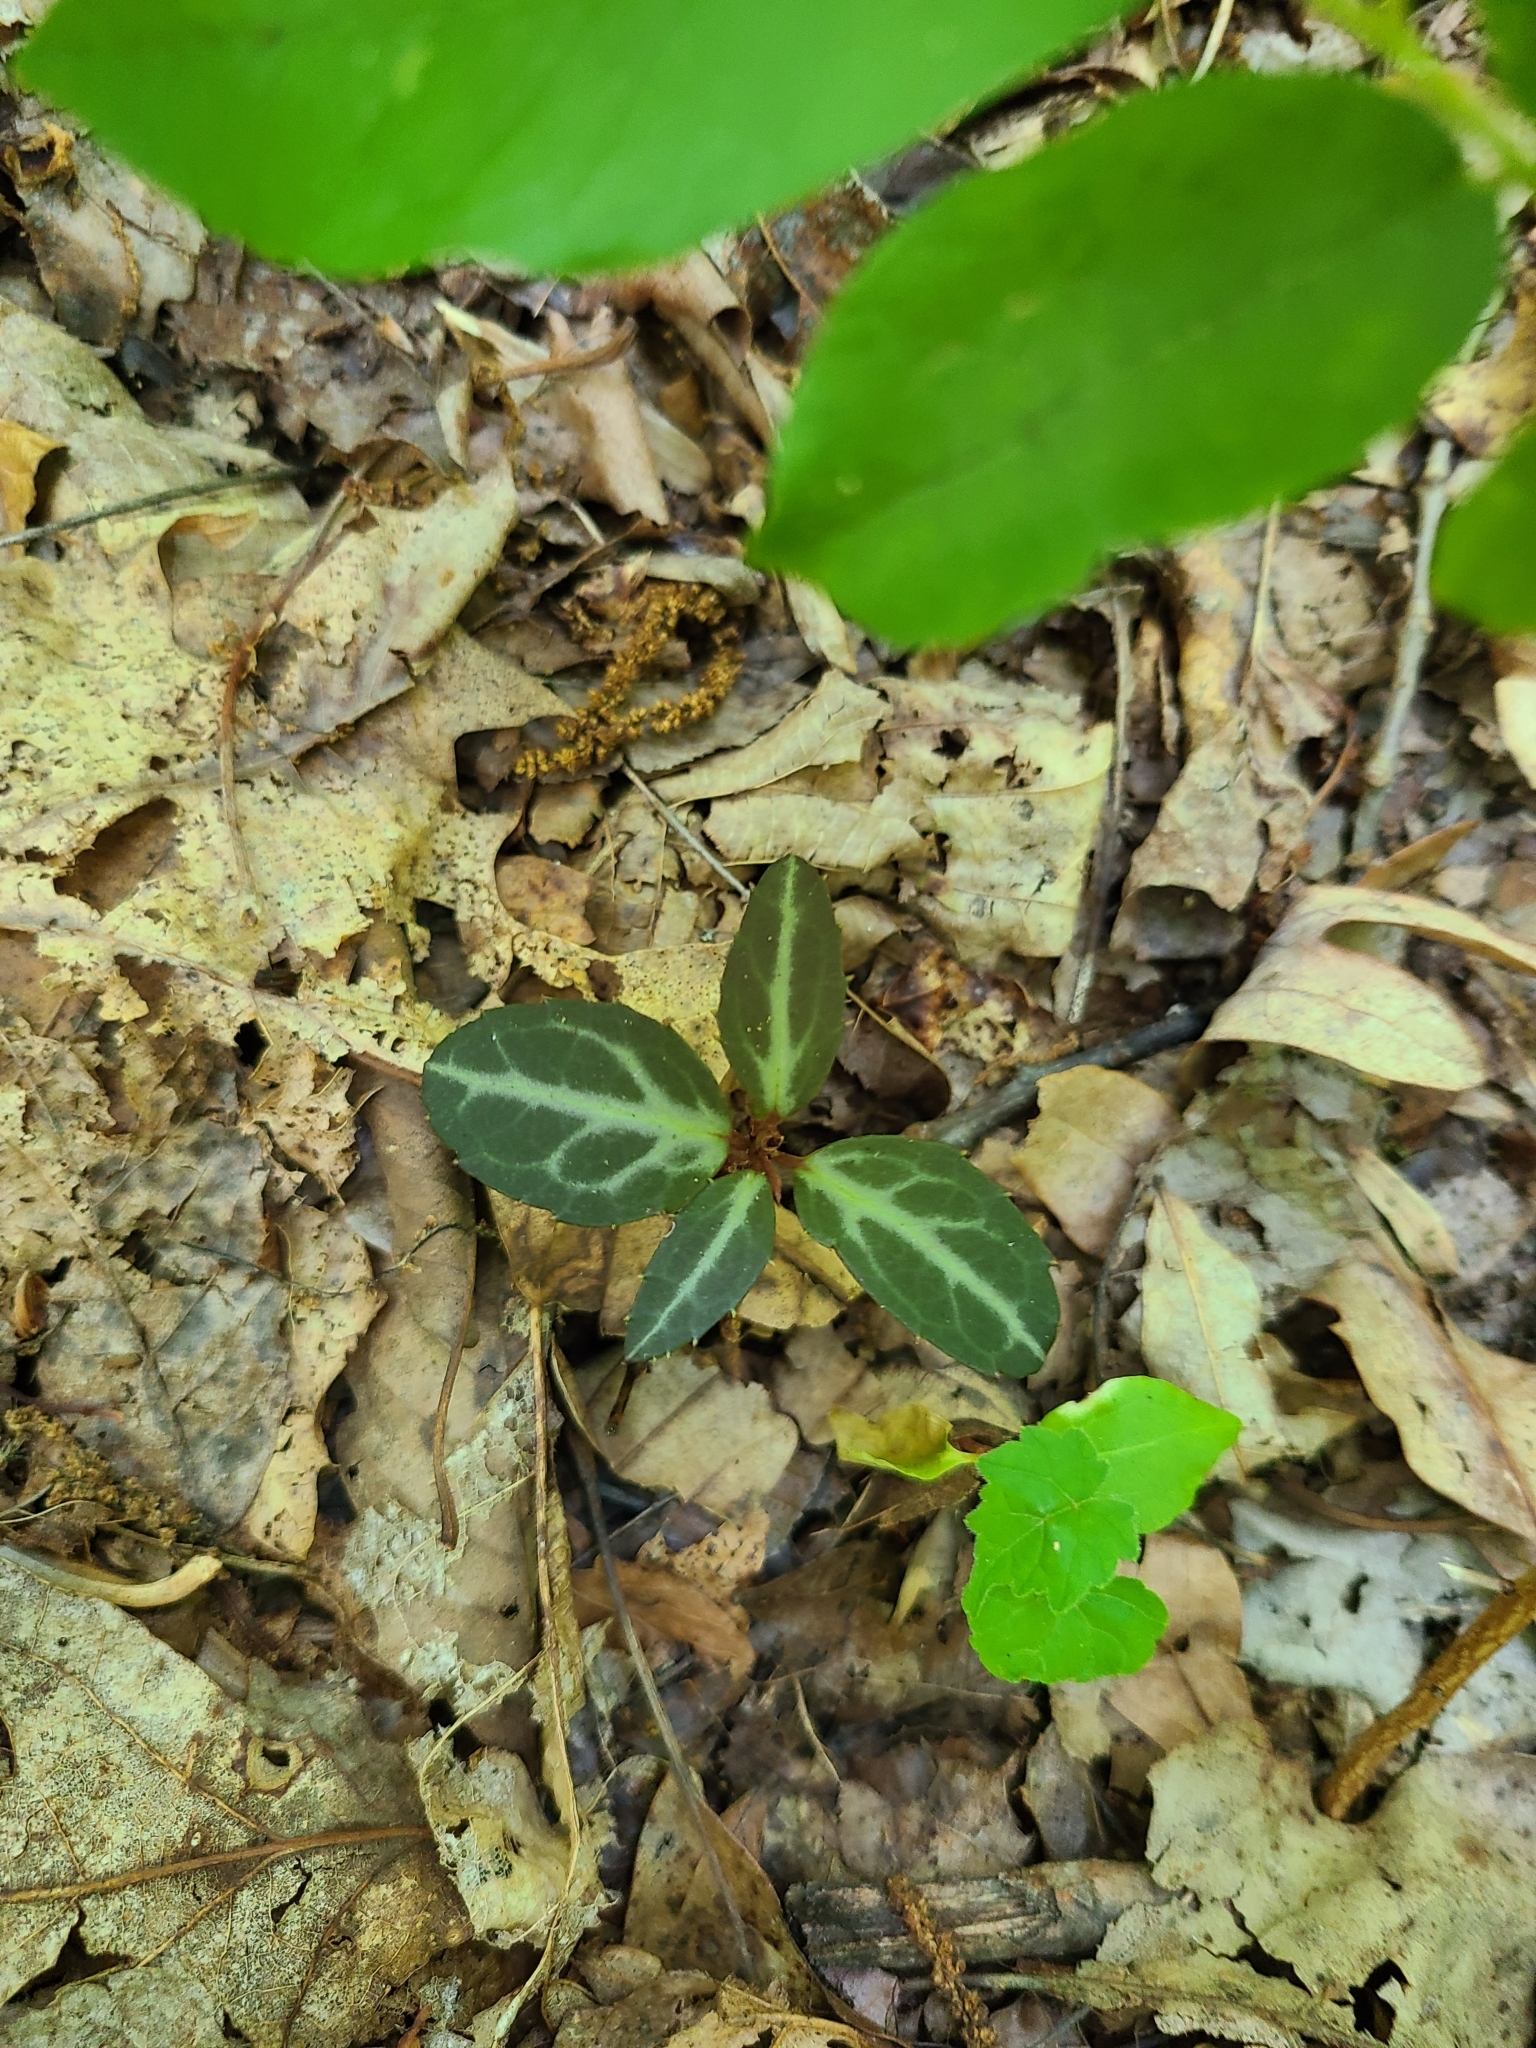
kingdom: Plantae
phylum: Tracheophyta
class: Magnoliopsida
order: Ericales
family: Ericaceae
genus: Chimaphila
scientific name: Chimaphila maculata
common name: Spotted pipsissewa
